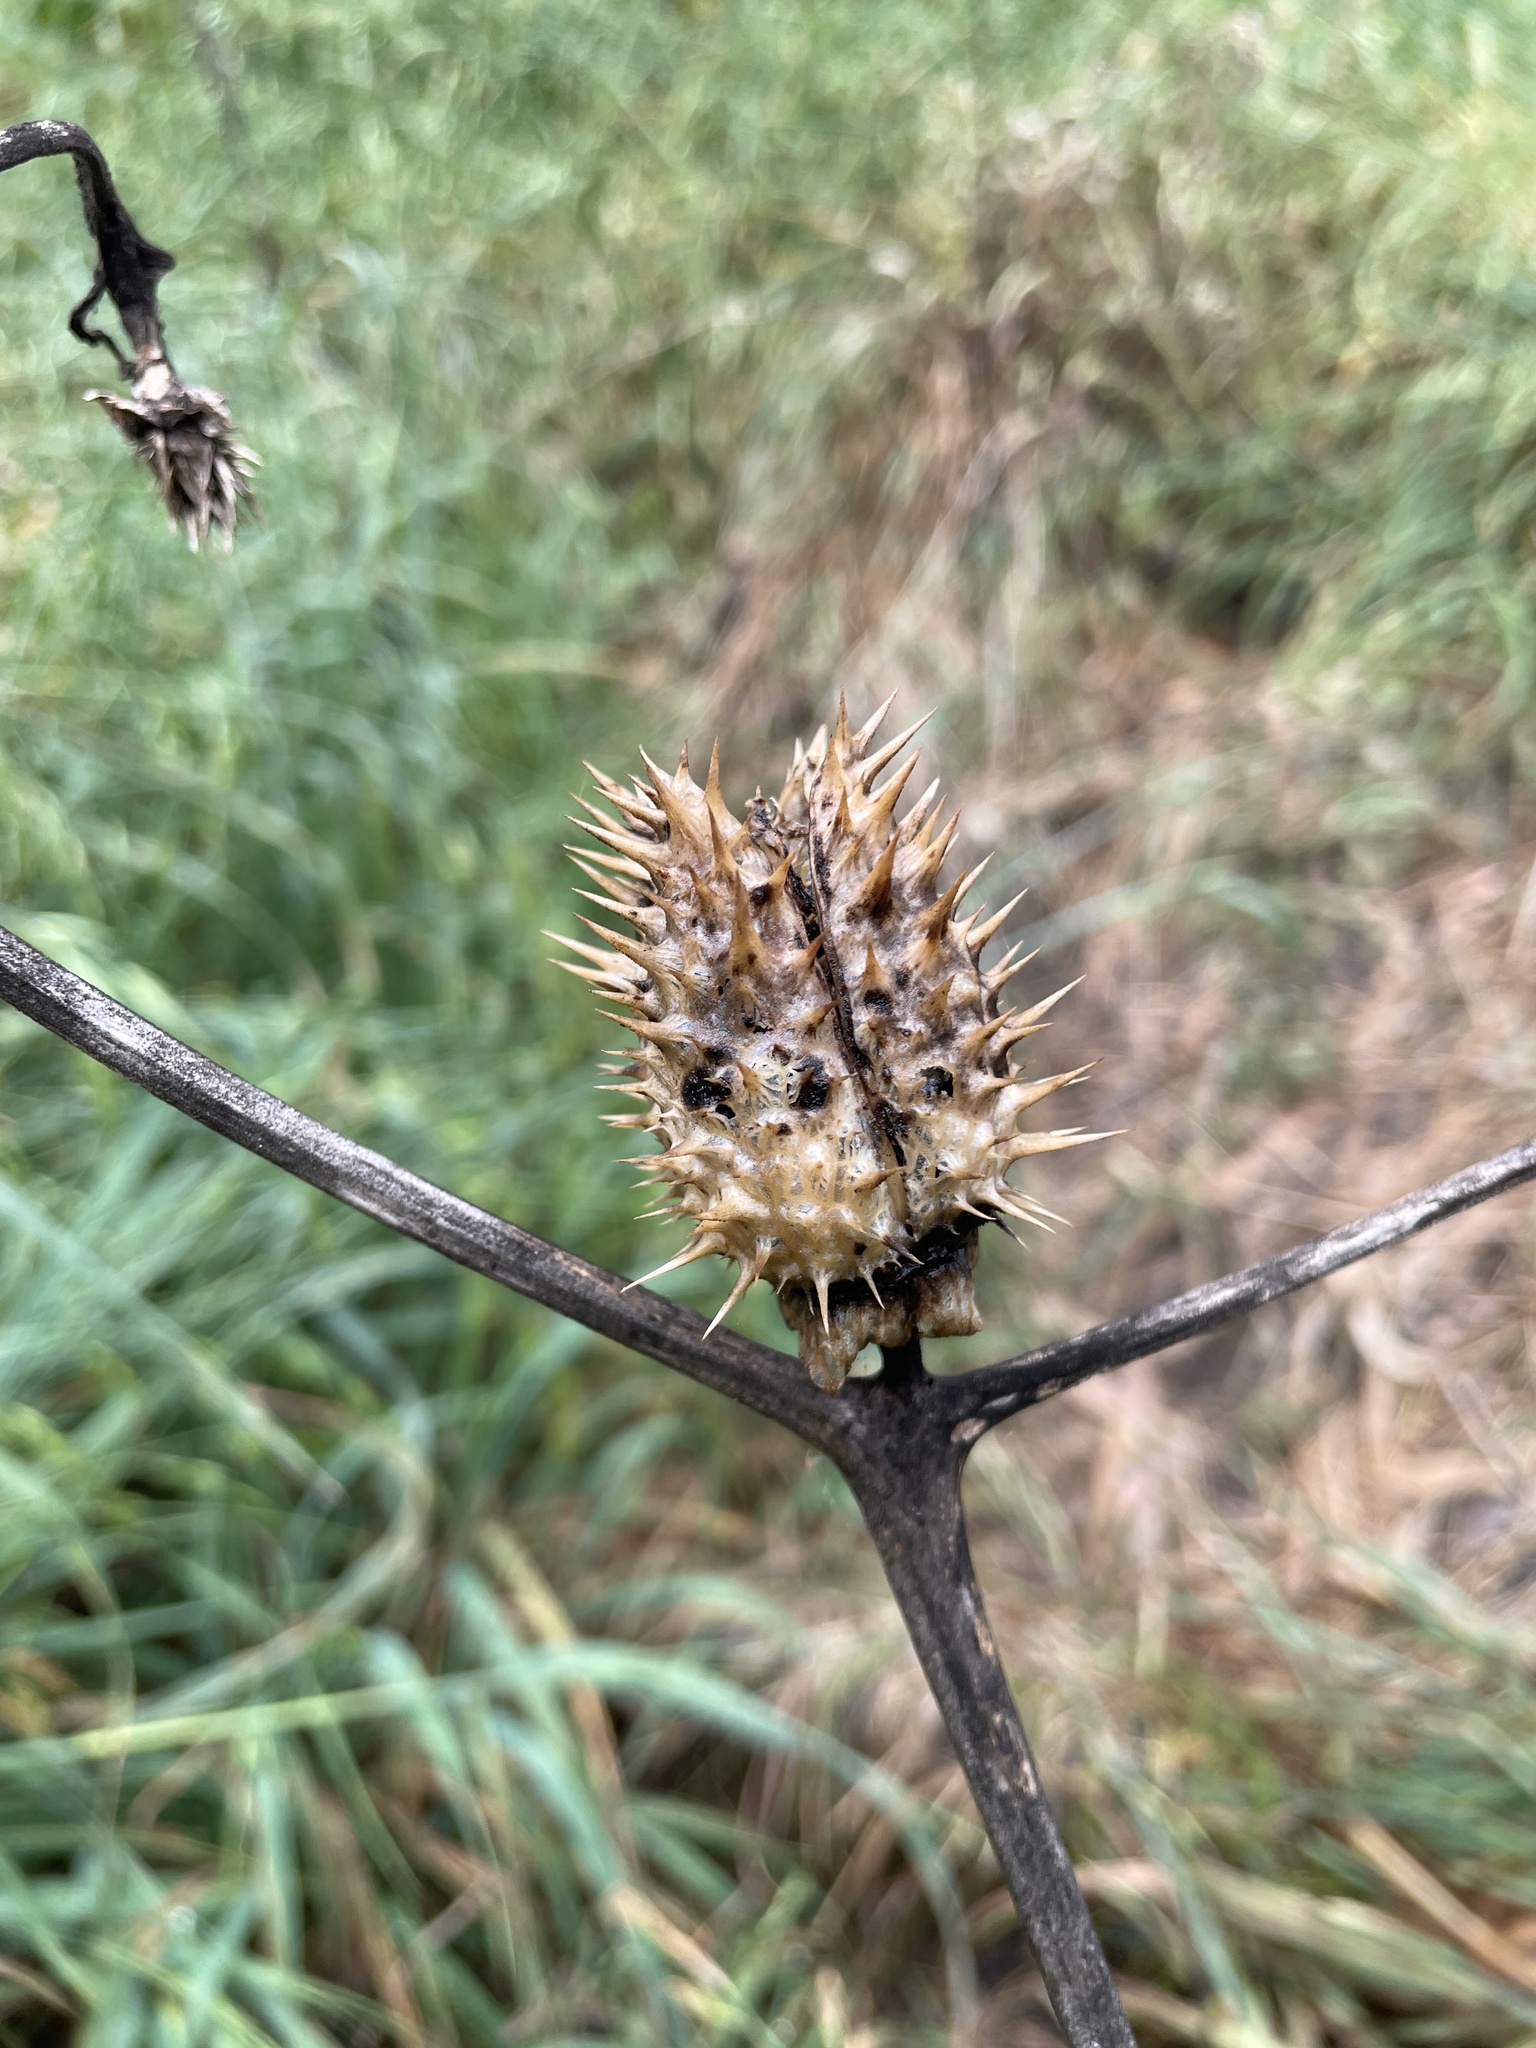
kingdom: Plantae
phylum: Tracheophyta
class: Magnoliopsida
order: Solanales
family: Solanaceae
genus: Datura
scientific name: Datura stramonium
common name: Thorn-apple
